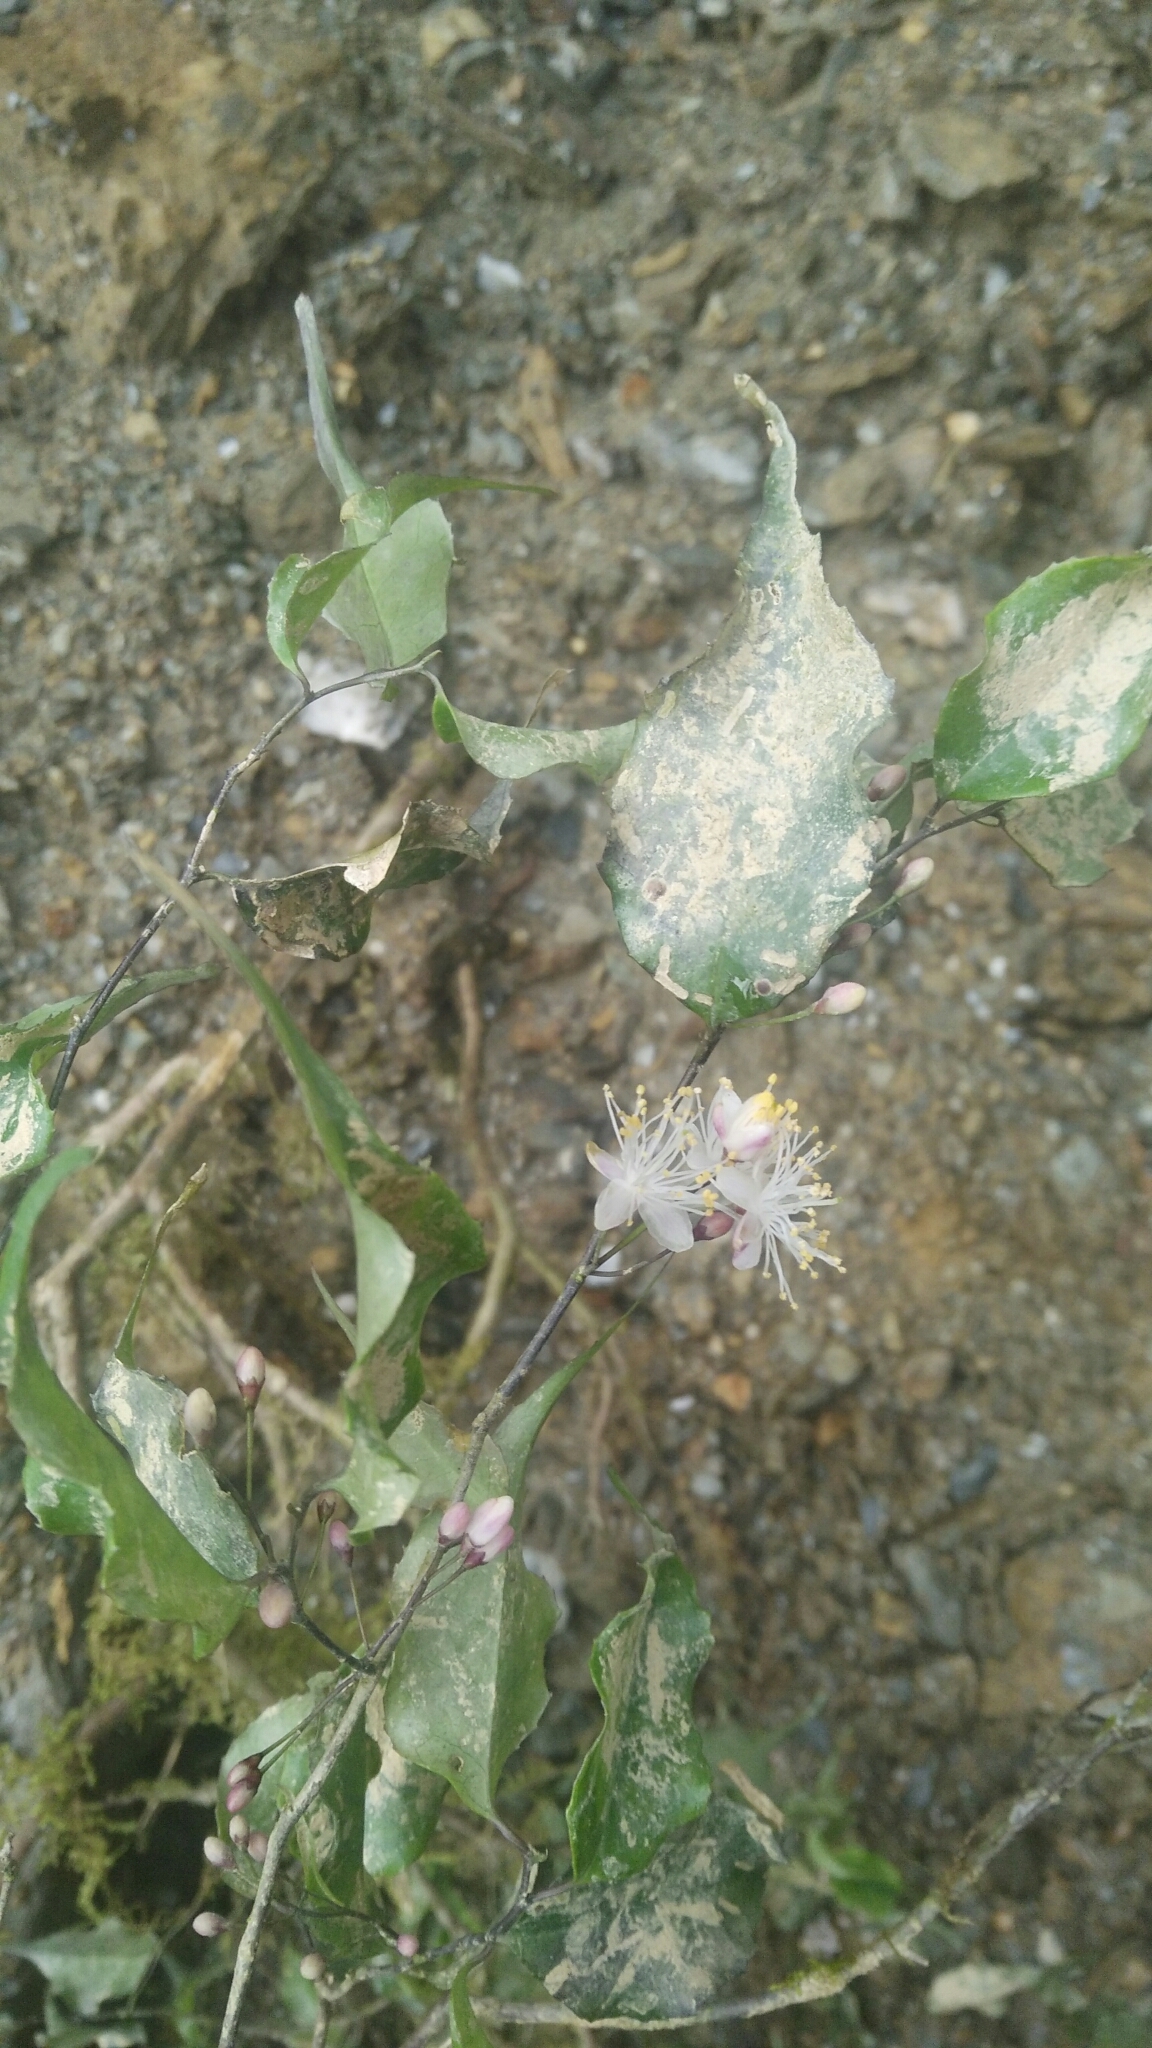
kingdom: Plantae
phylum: Tracheophyta
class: Magnoliopsida
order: Ericales
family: Symplocaceae
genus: Symplocos
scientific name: Symplocos sumuntia
